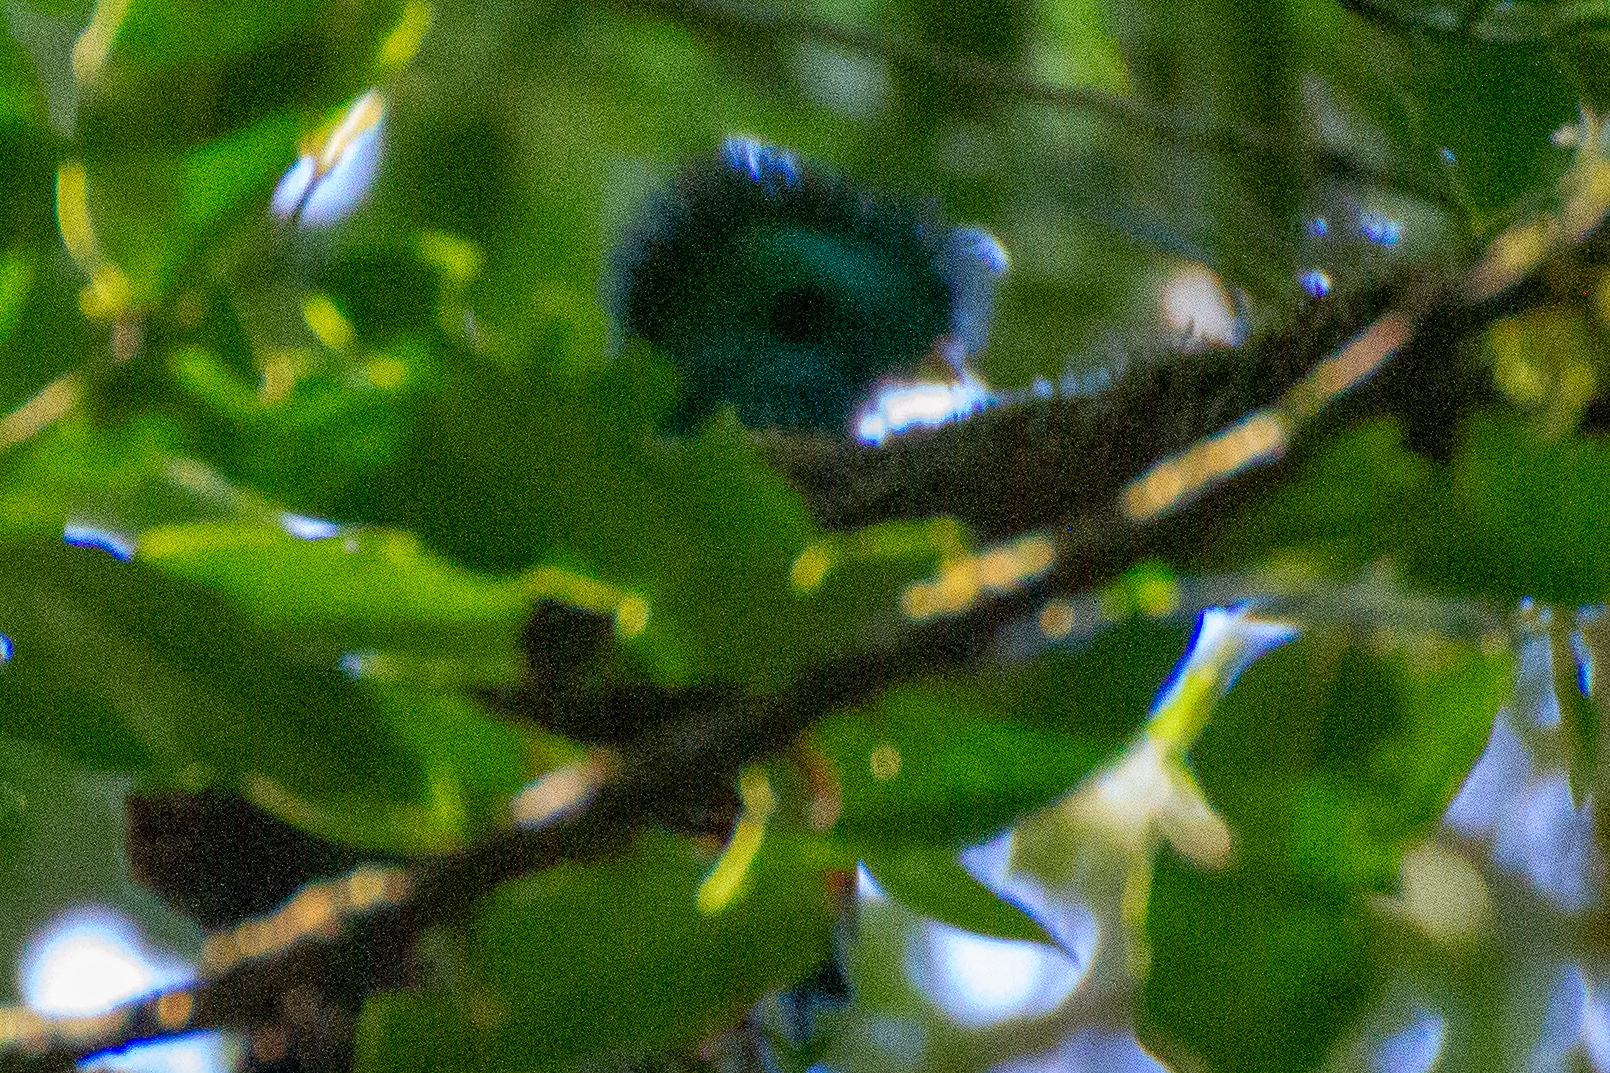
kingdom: Animalia
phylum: Chordata
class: Aves
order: Trogoniformes
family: Trogonidae
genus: Pharomachrus
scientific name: Pharomachrus mocinno
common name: Resplendent quetzal
